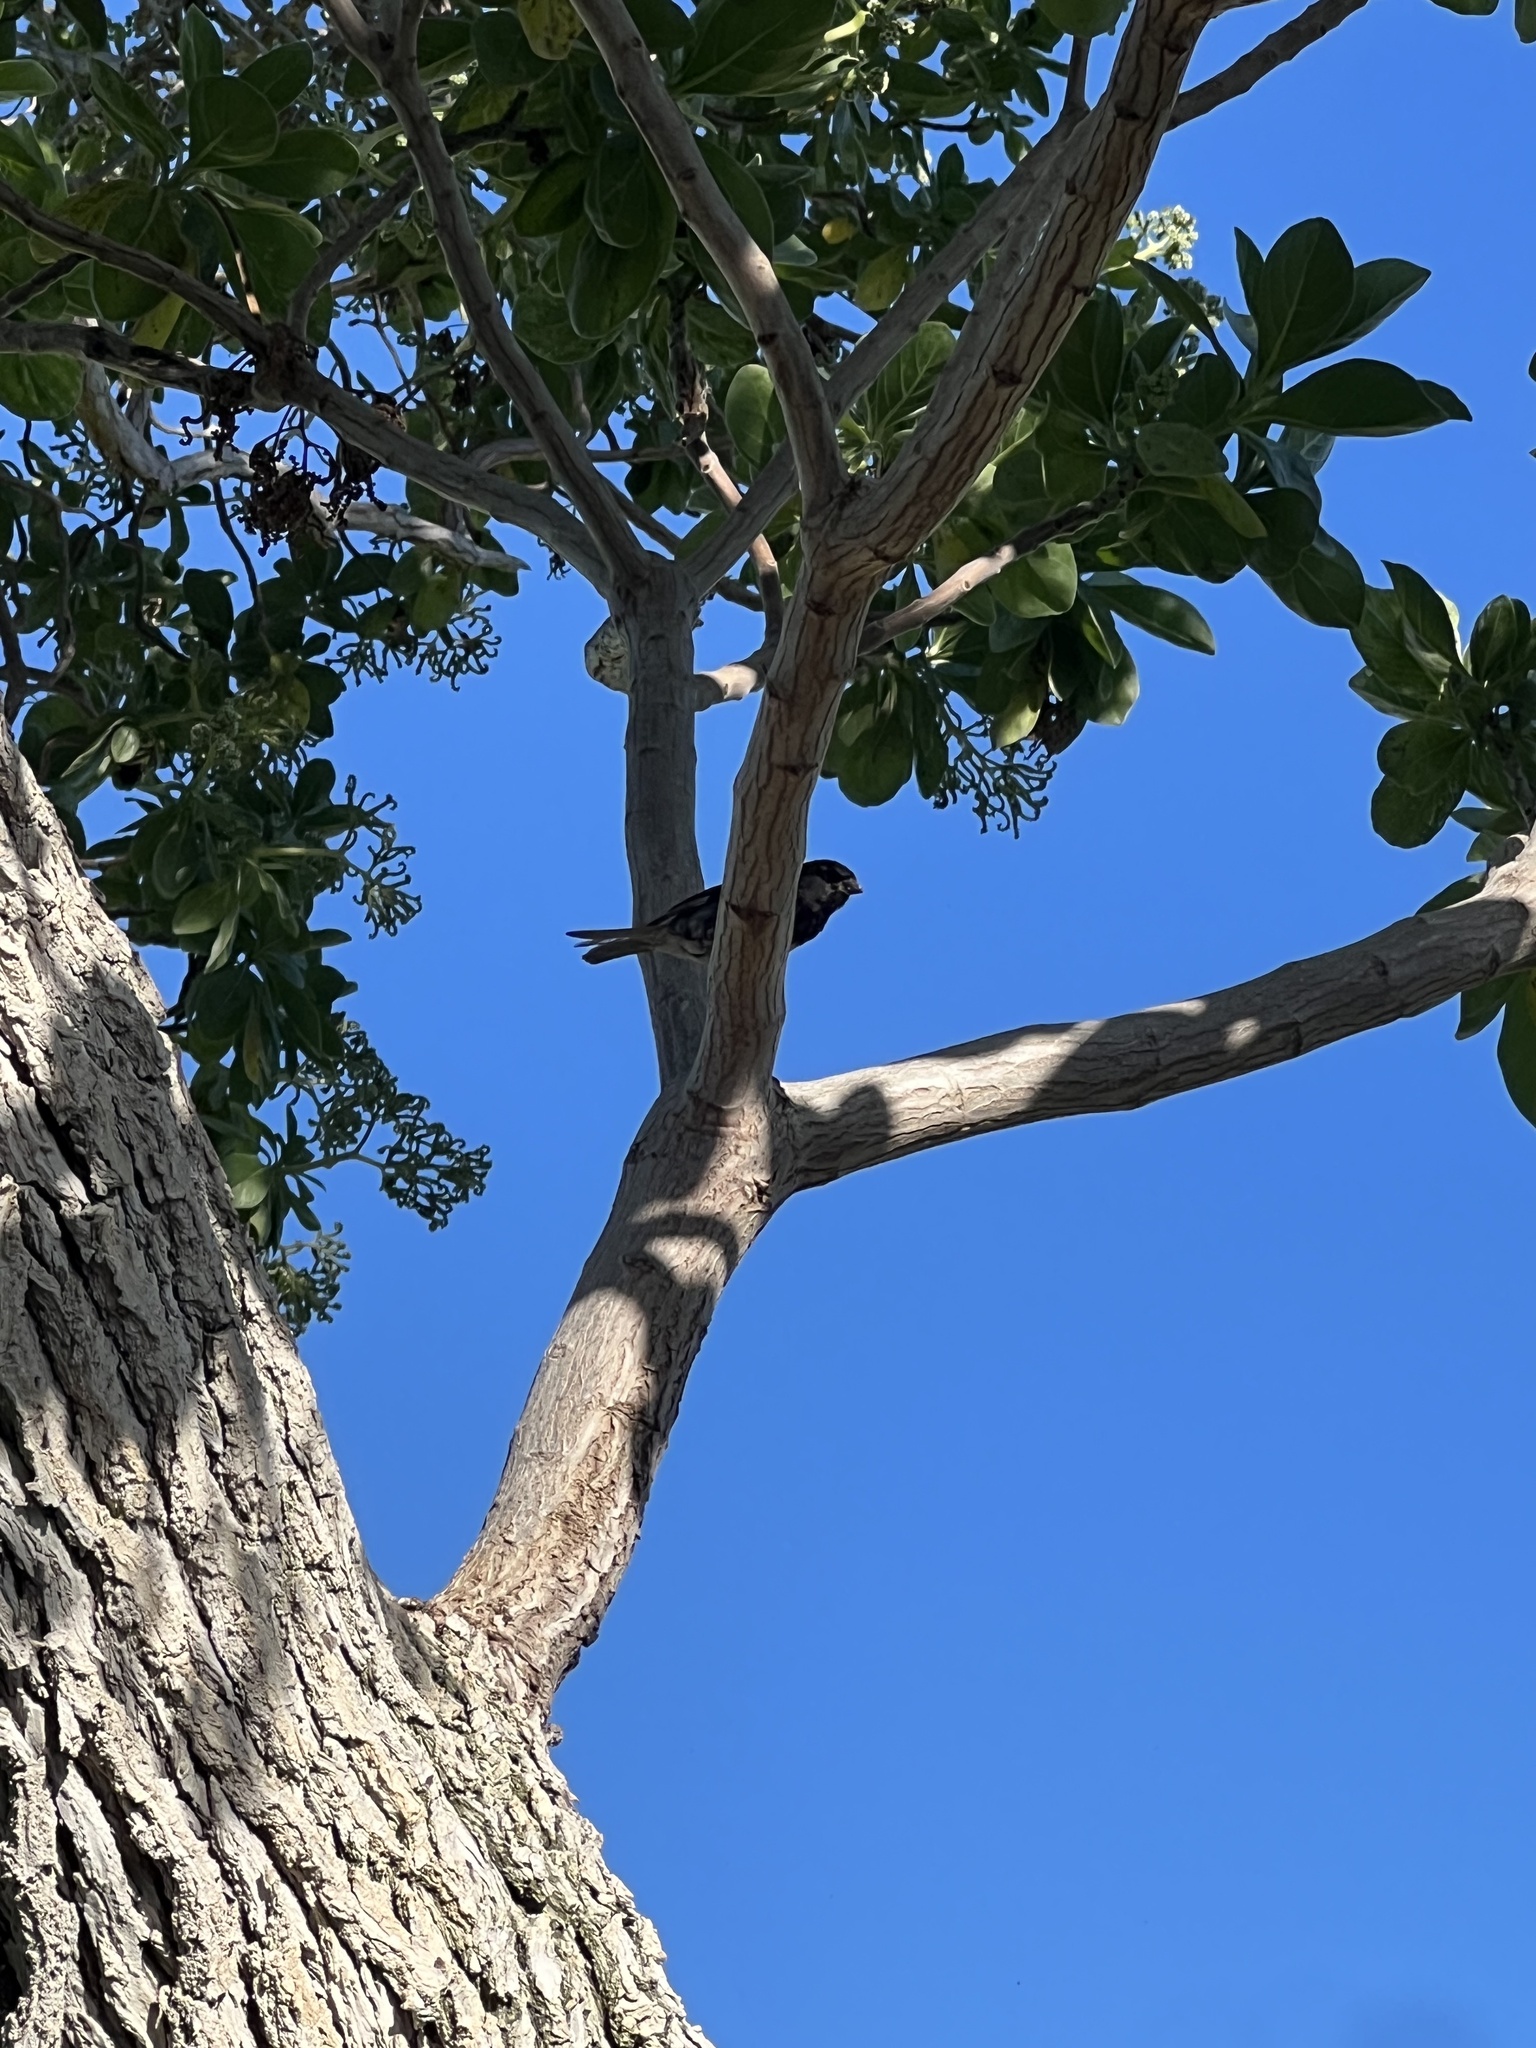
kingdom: Animalia
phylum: Chordata
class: Aves
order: Passeriformes
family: Passeridae
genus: Passer
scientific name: Passer domesticus
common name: House sparrow
